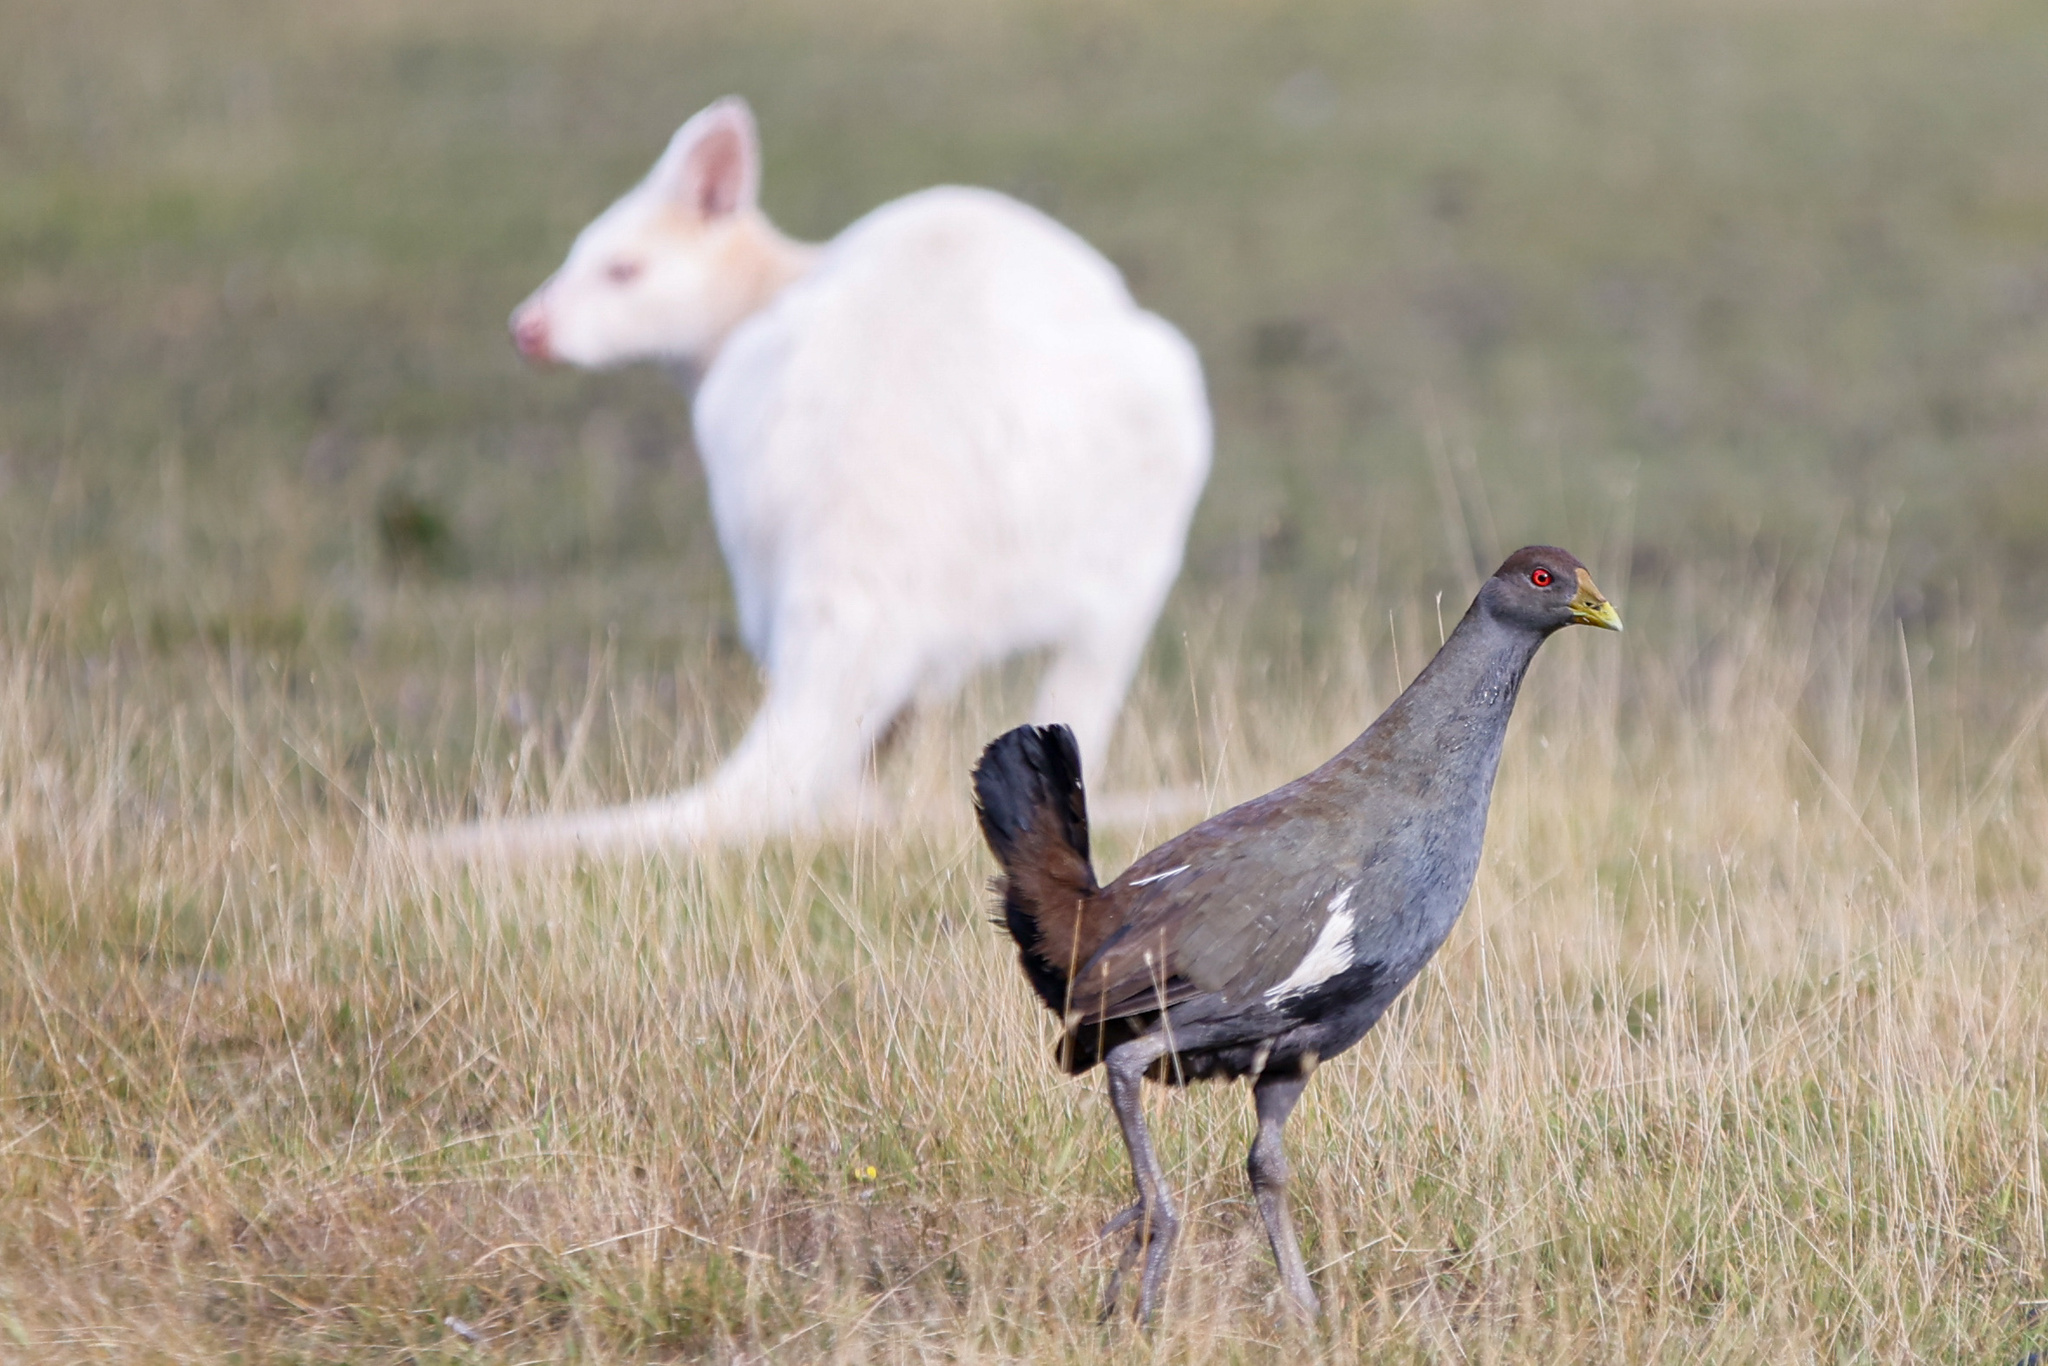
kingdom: Animalia
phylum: Chordata
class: Aves
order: Gruiformes
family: Rallidae
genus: Gallinula
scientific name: Gallinula mortierii
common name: Tasmanian nativehen
